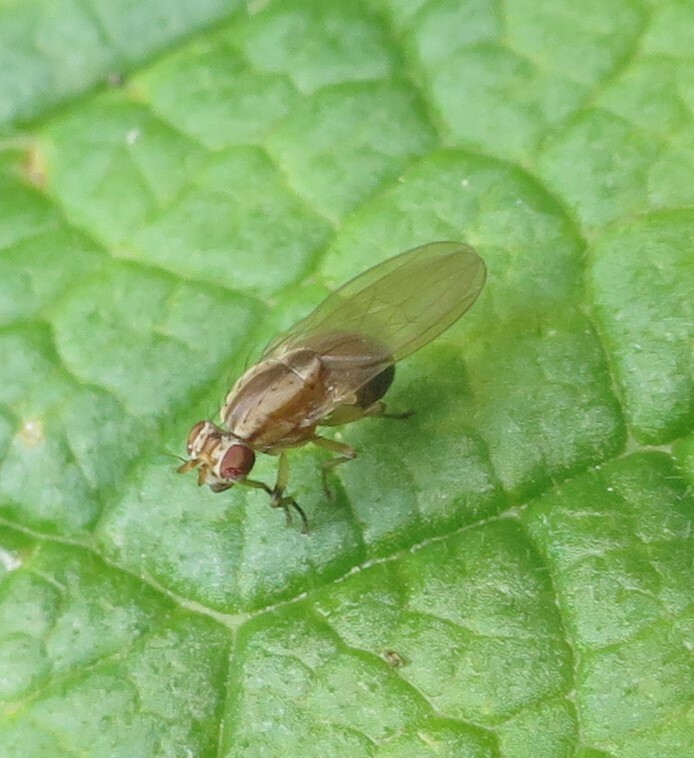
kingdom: Animalia
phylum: Arthropoda
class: Insecta
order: Diptera
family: Lauxaniidae
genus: Poecilohetaerus
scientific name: Poecilohetaerus punctatifacies
